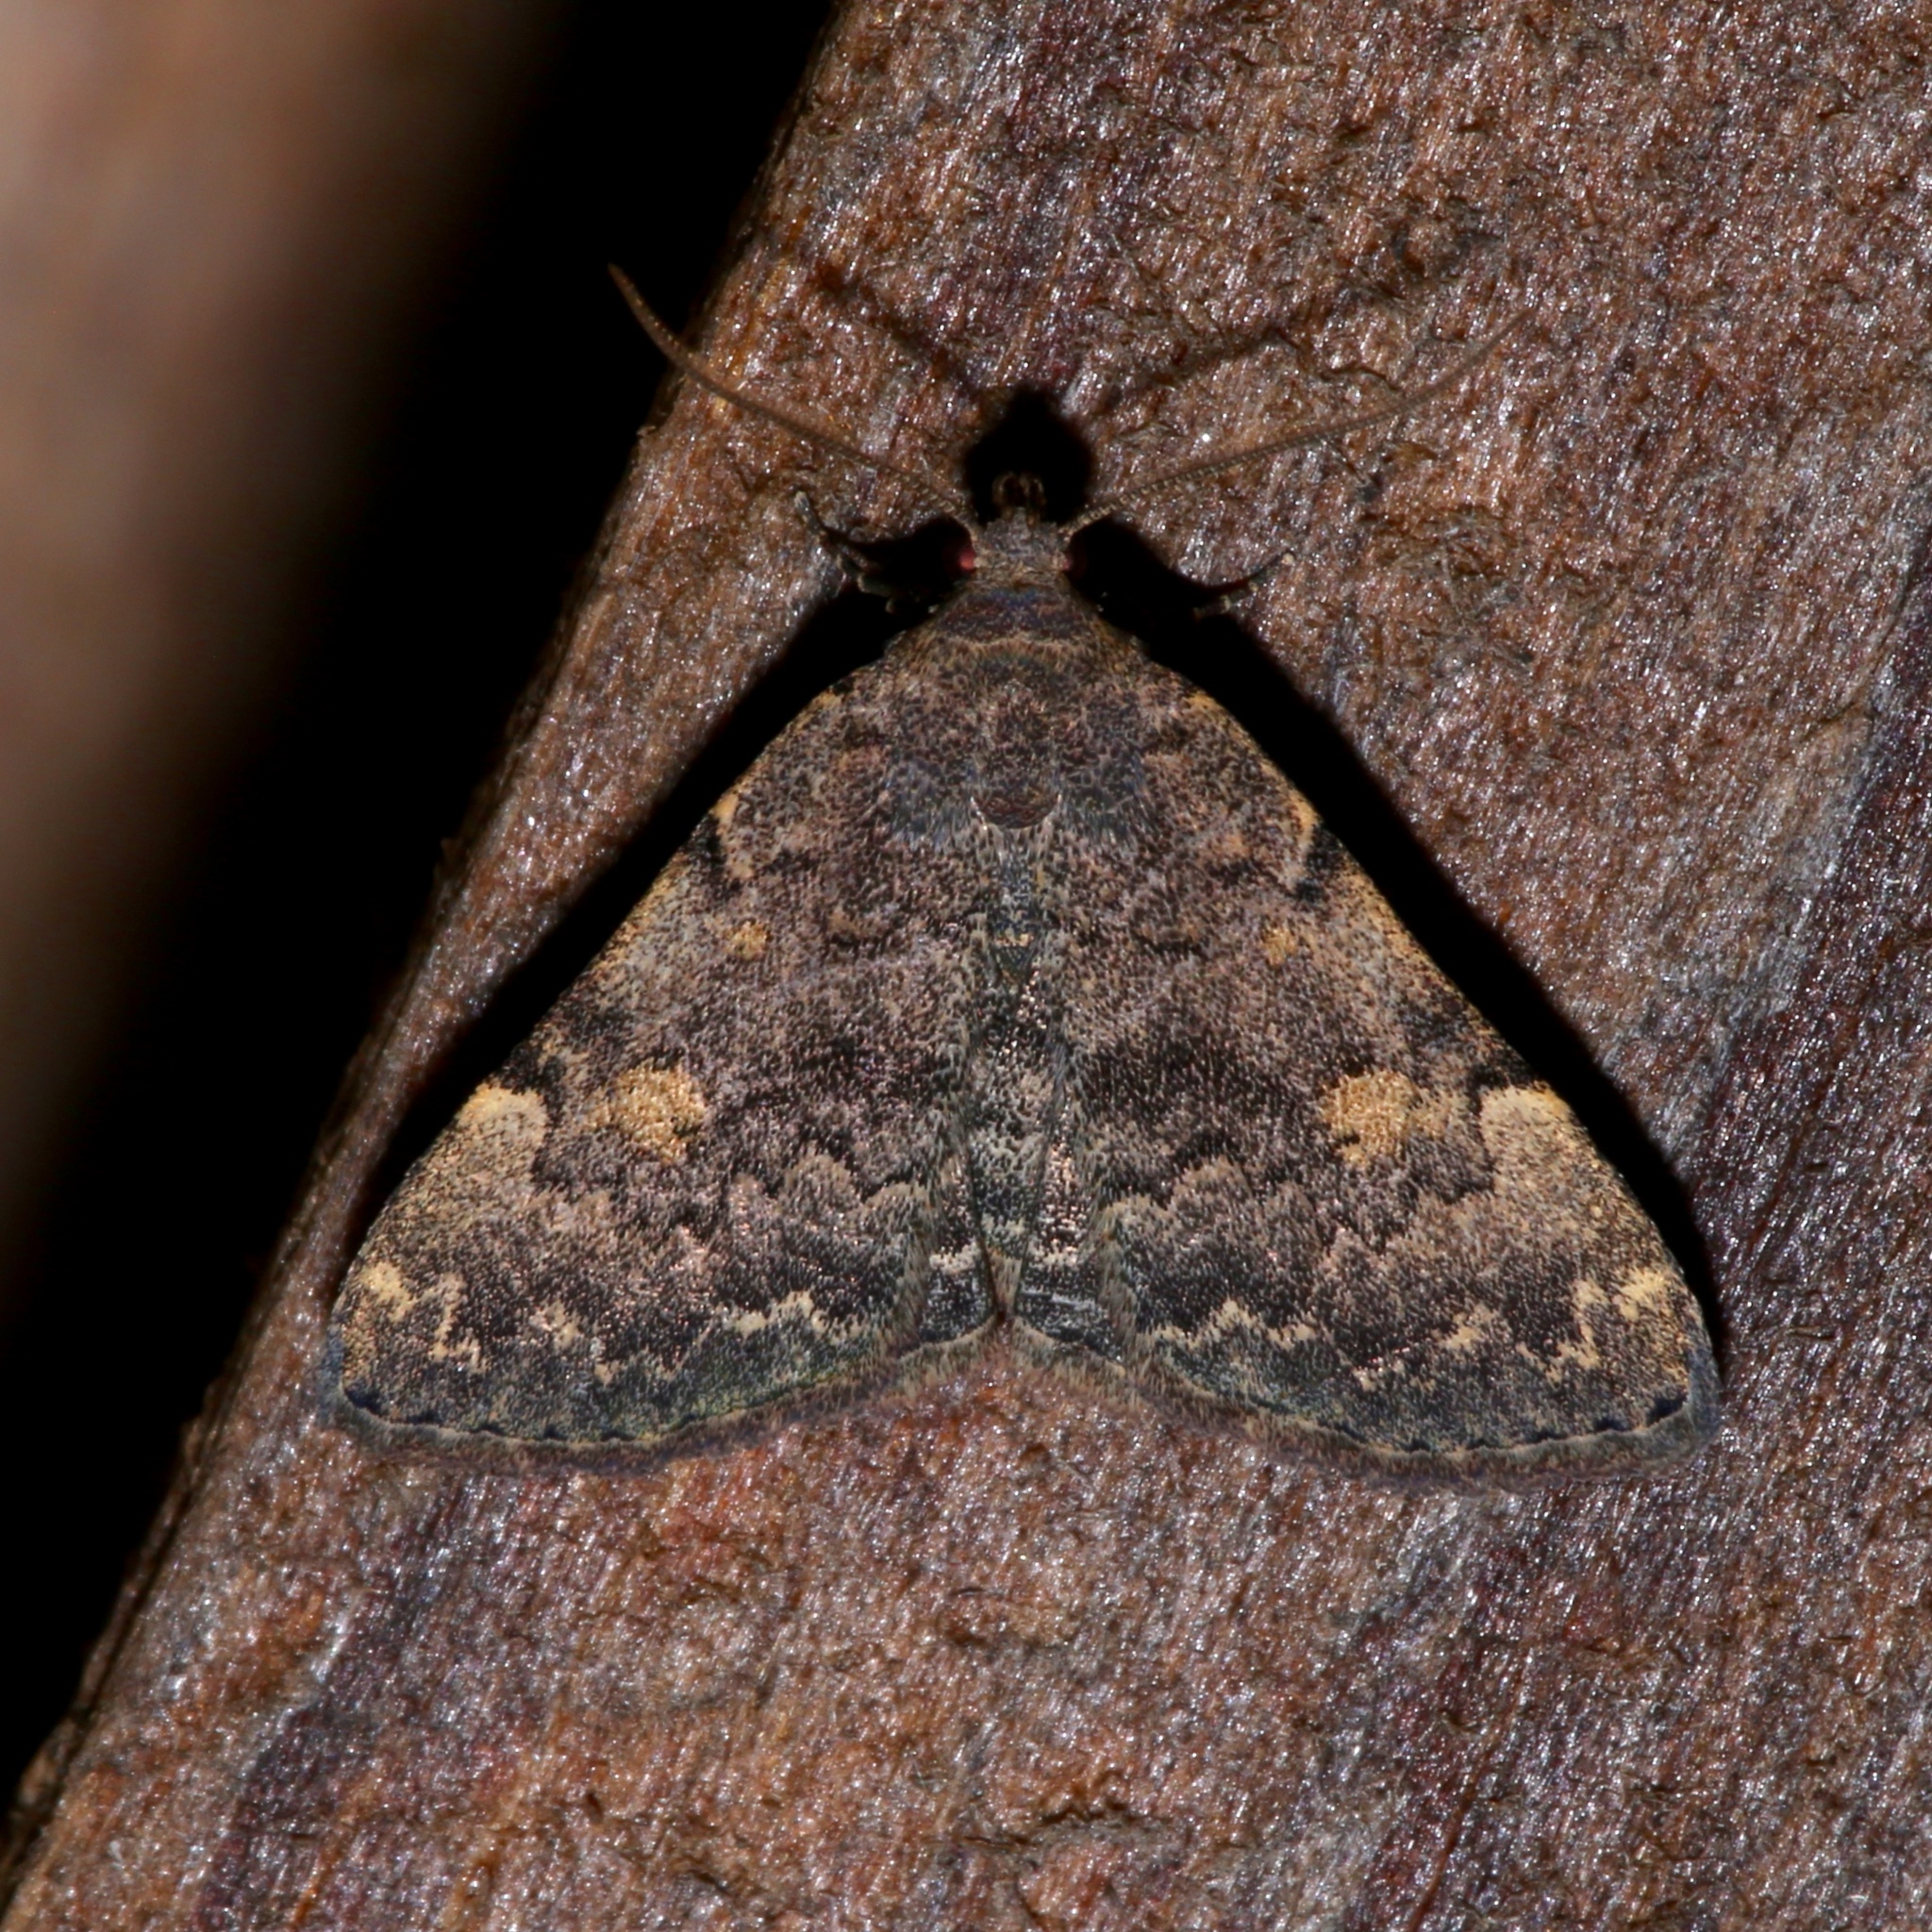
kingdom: Animalia
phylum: Arthropoda
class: Insecta
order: Lepidoptera
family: Erebidae
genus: Idia
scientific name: Idia aemula
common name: Common idia moth
